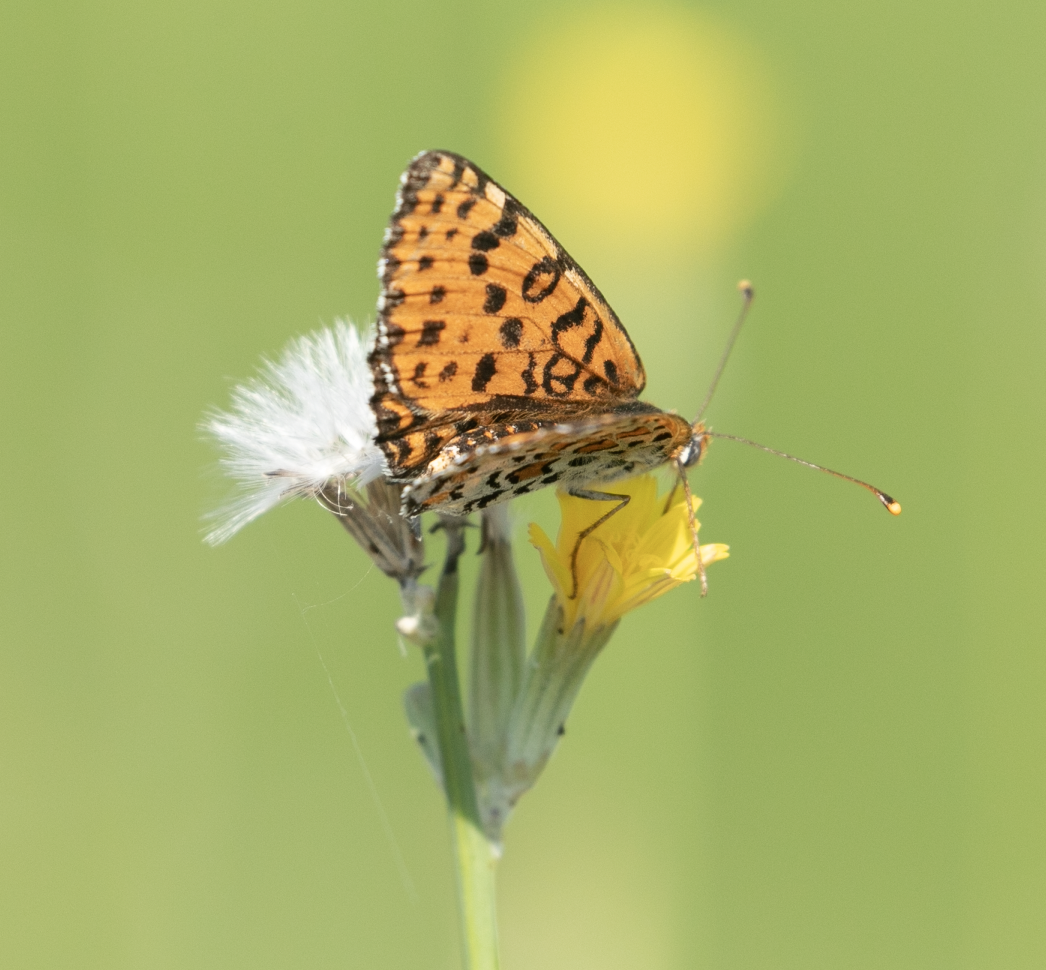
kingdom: Animalia
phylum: Arthropoda
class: Insecta
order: Lepidoptera
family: Nymphalidae
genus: Melitaea
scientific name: Melitaea didyma
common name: Spotted fritillary
